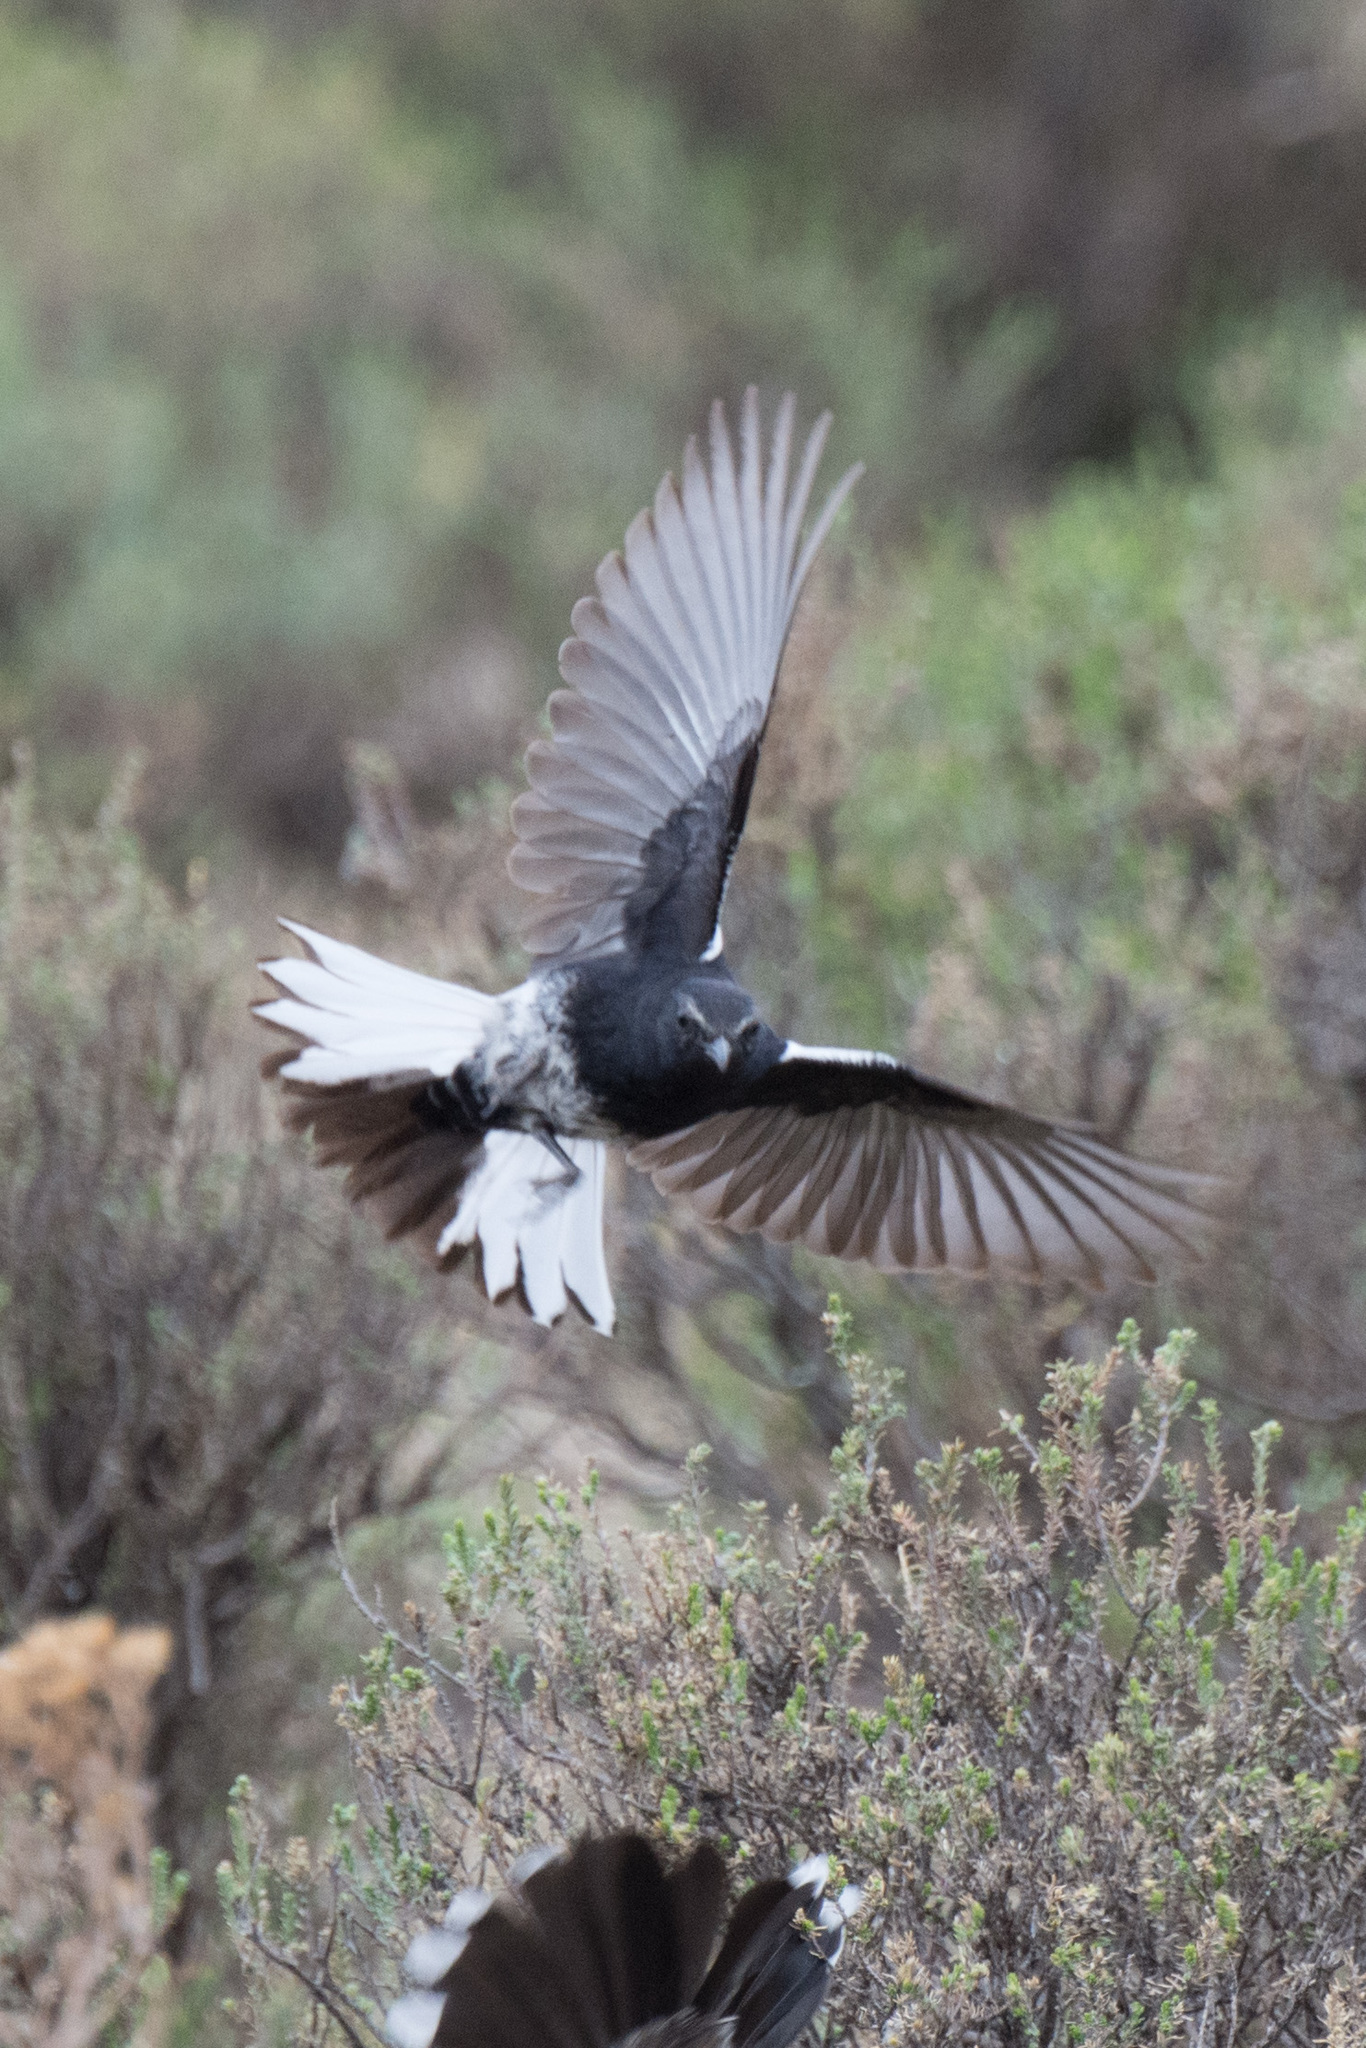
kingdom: Animalia
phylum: Chordata
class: Aves
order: Passeriformes
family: Muscicapidae
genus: Oenanthe
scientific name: Oenanthe monticola
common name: Mountain wheatear
